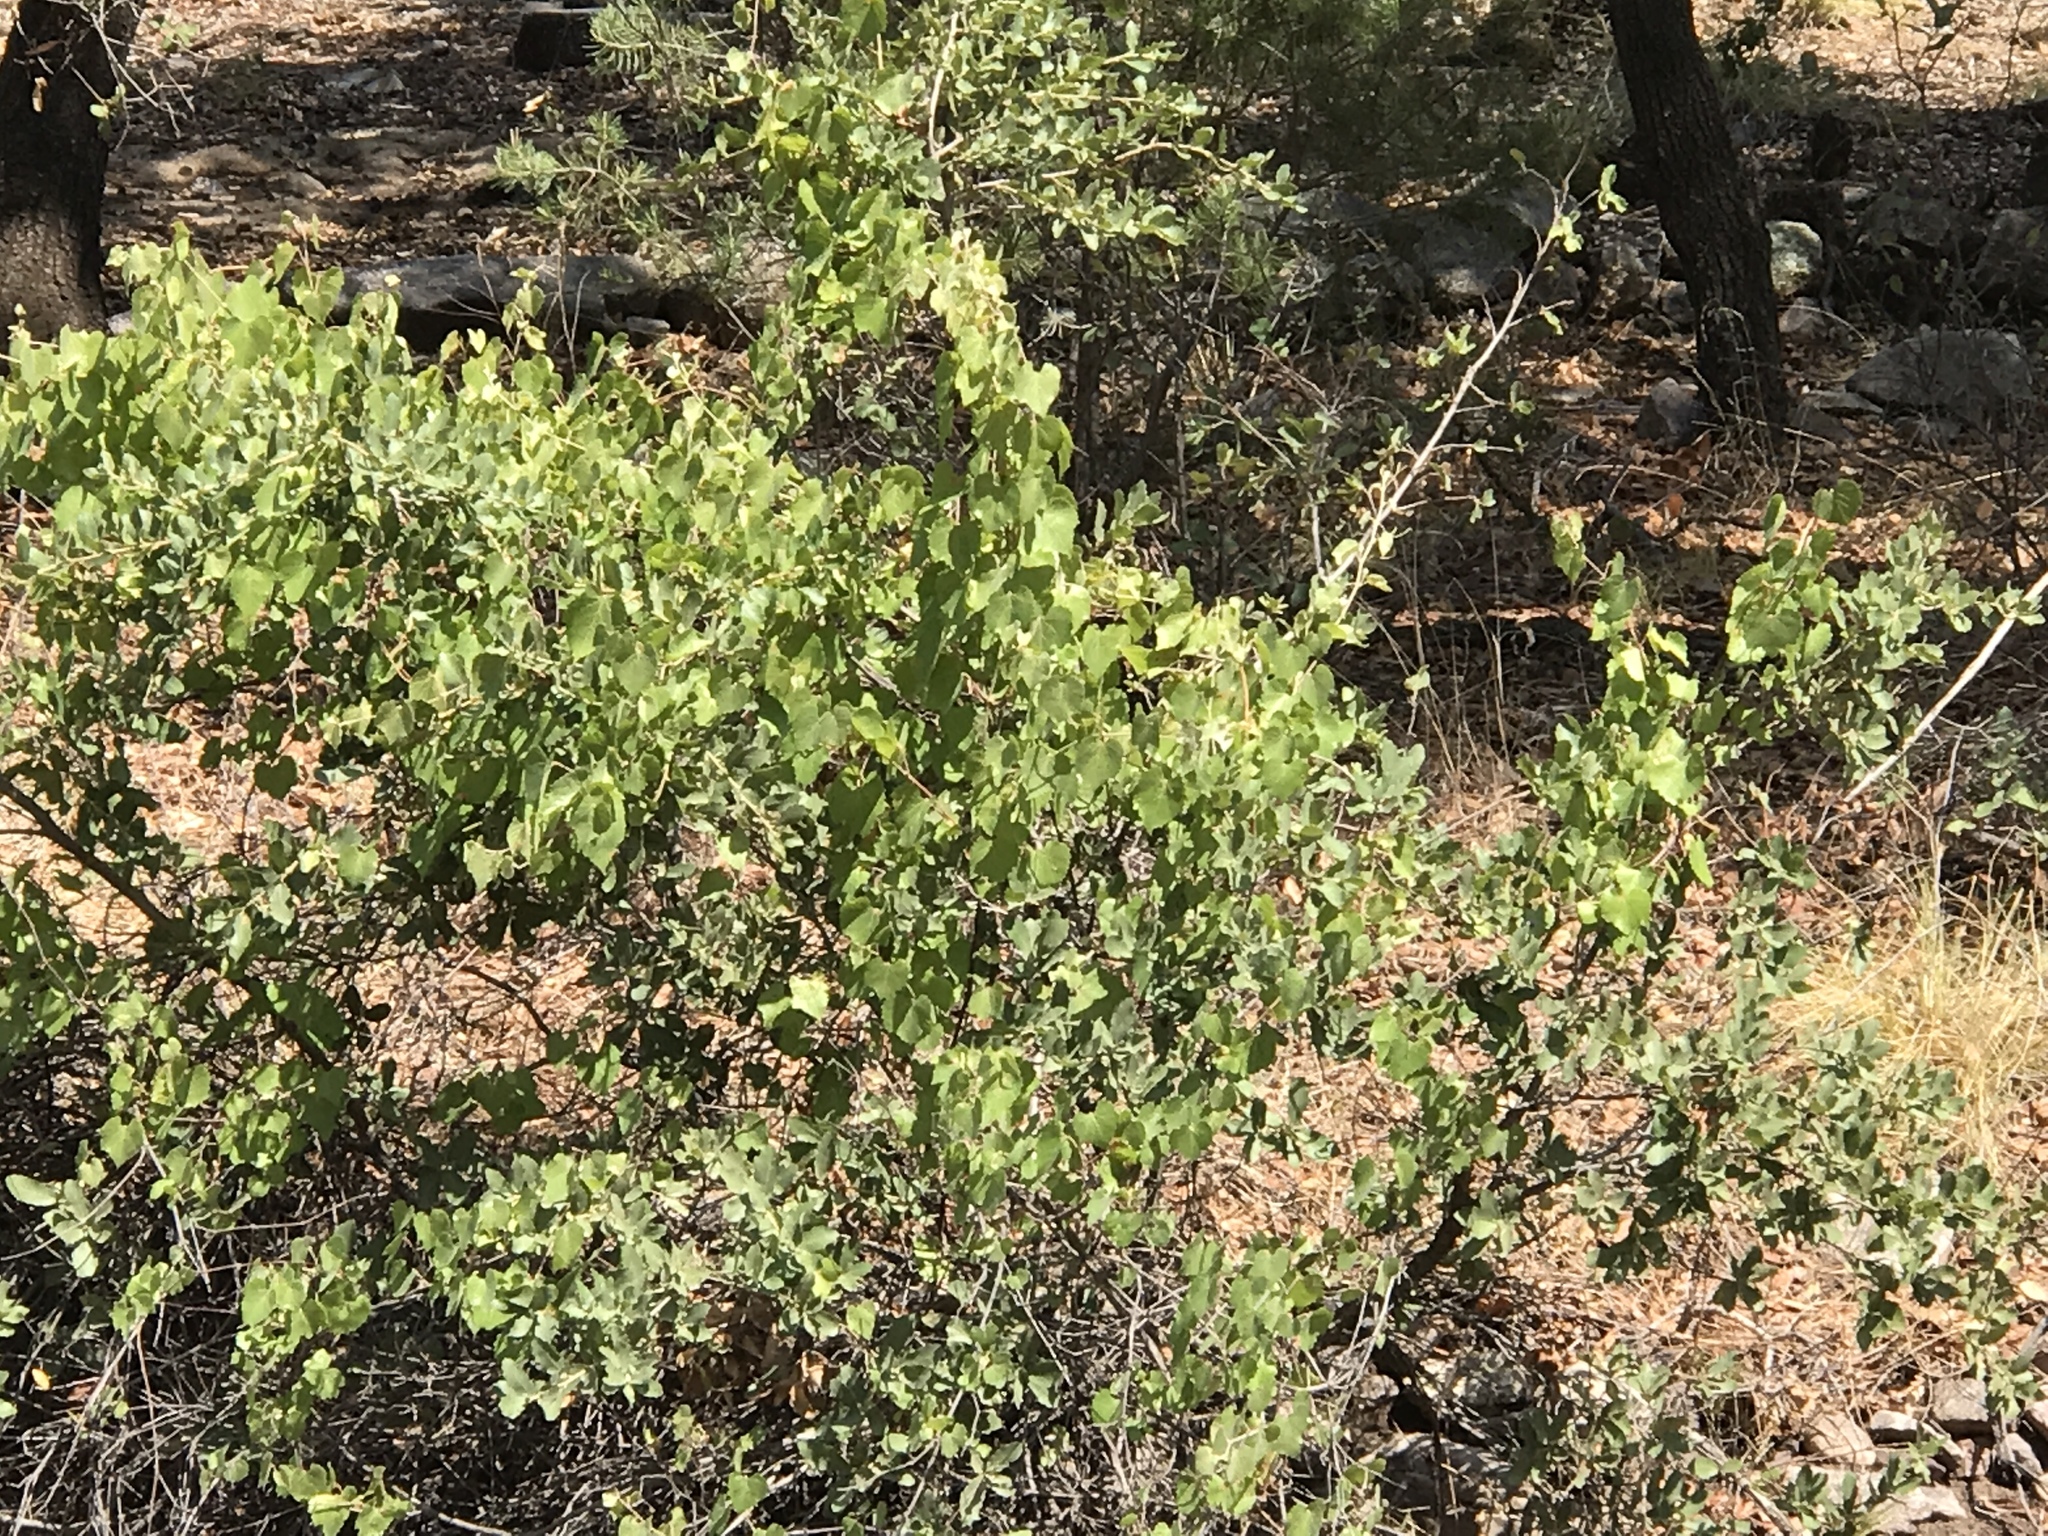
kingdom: Plantae
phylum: Tracheophyta
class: Magnoliopsida
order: Vitales
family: Vitaceae
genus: Vitis
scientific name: Vitis arizonica
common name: Canyon grape
